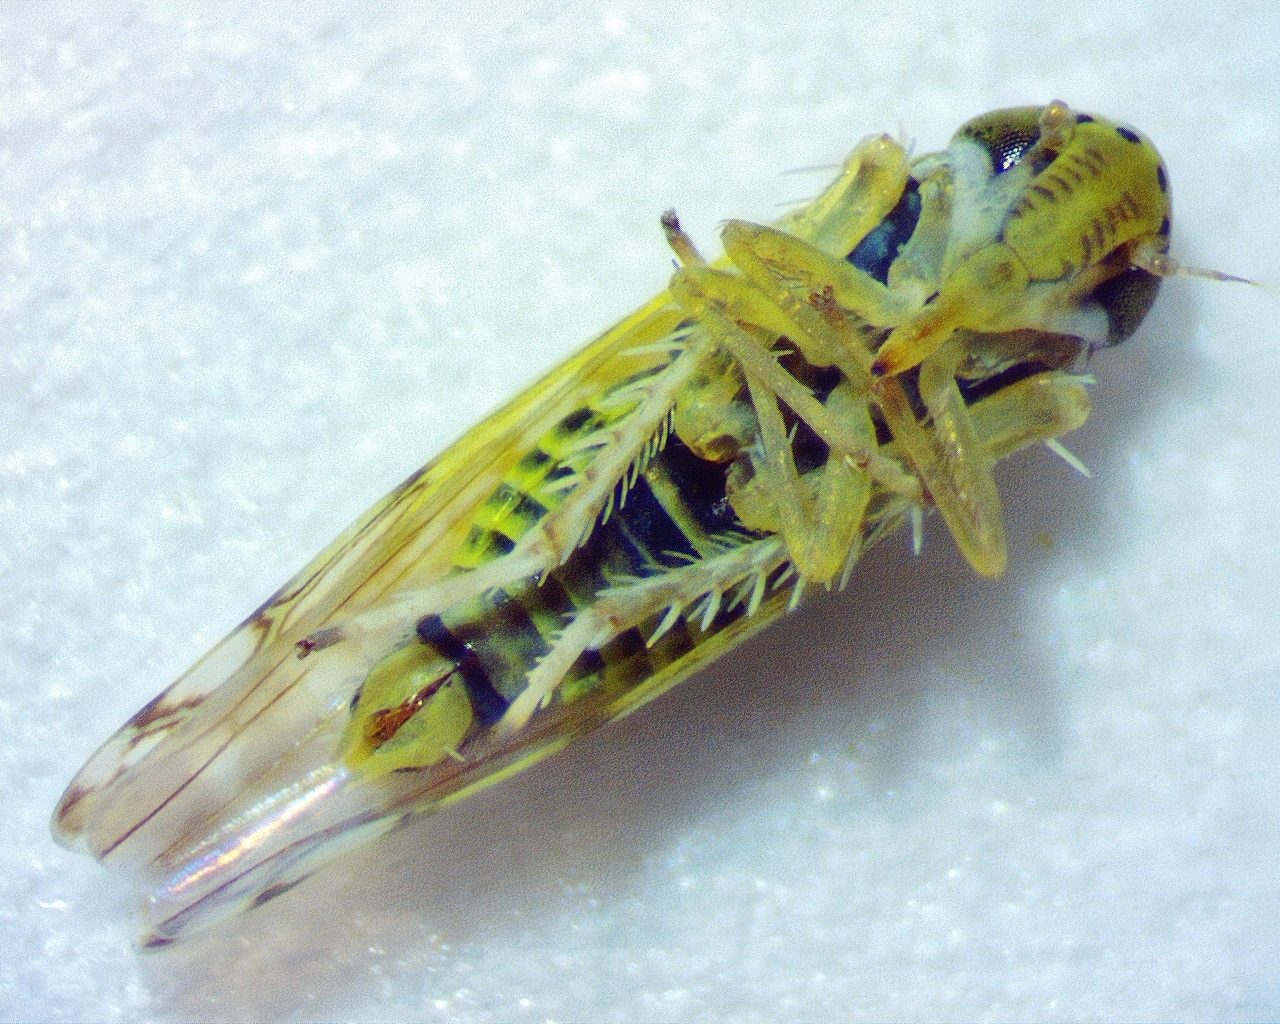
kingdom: Animalia
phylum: Arthropoda
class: Insecta
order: Hemiptera
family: Cicadellidae
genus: Eupteryx
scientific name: Eupteryx decemnotata
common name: Ligurian leafhopper
